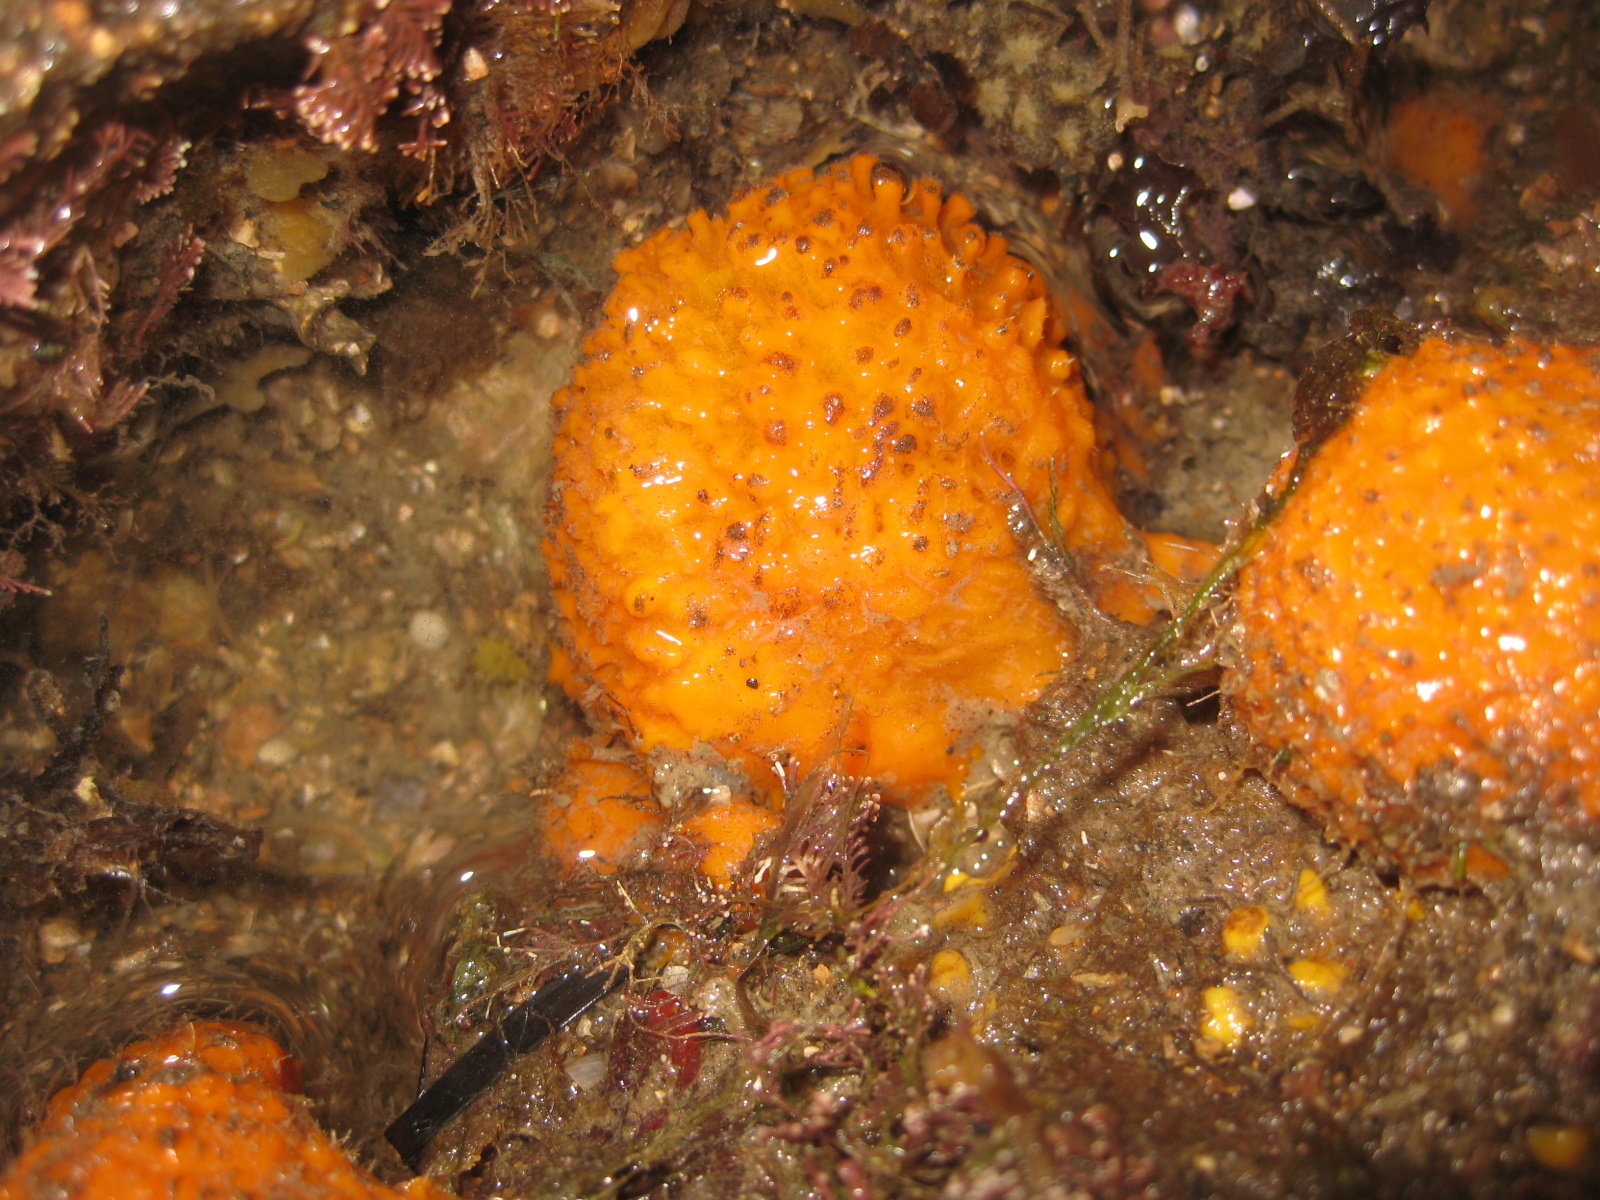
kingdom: Animalia
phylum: Porifera
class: Demospongiae
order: Tethyida
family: Tethyidae
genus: Tethya
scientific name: Tethya burtoni
